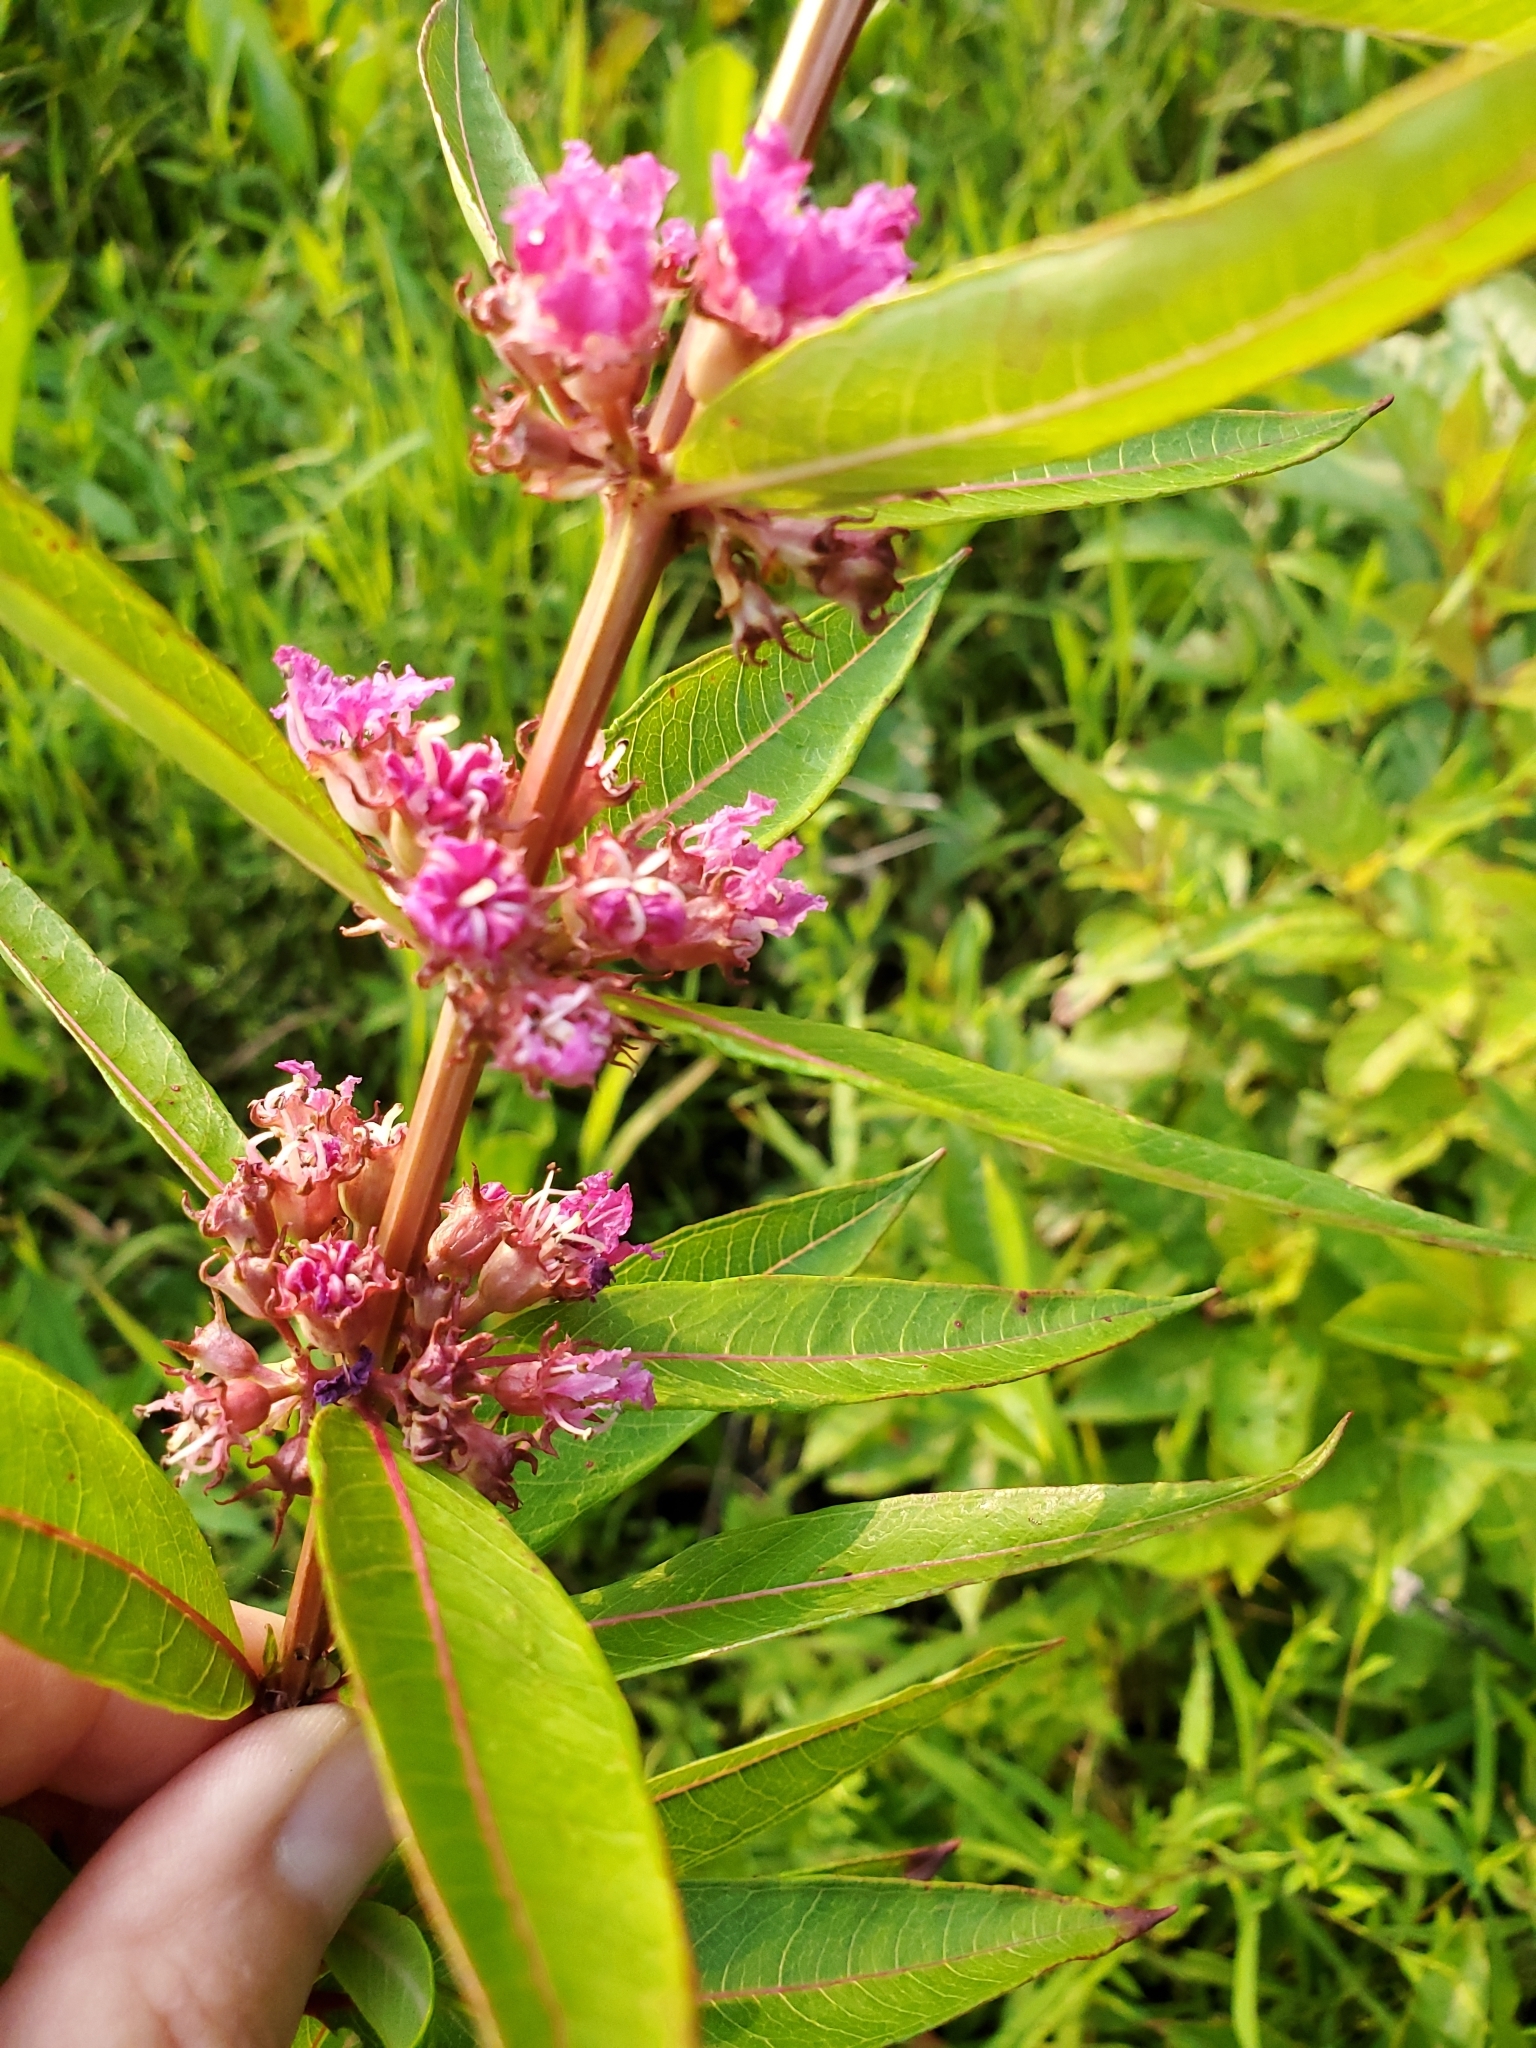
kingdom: Plantae
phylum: Tracheophyta
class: Magnoliopsida
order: Myrtales
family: Lythraceae
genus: Decodon
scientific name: Decodon verticillatus
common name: Hairy swamp loosestrife
